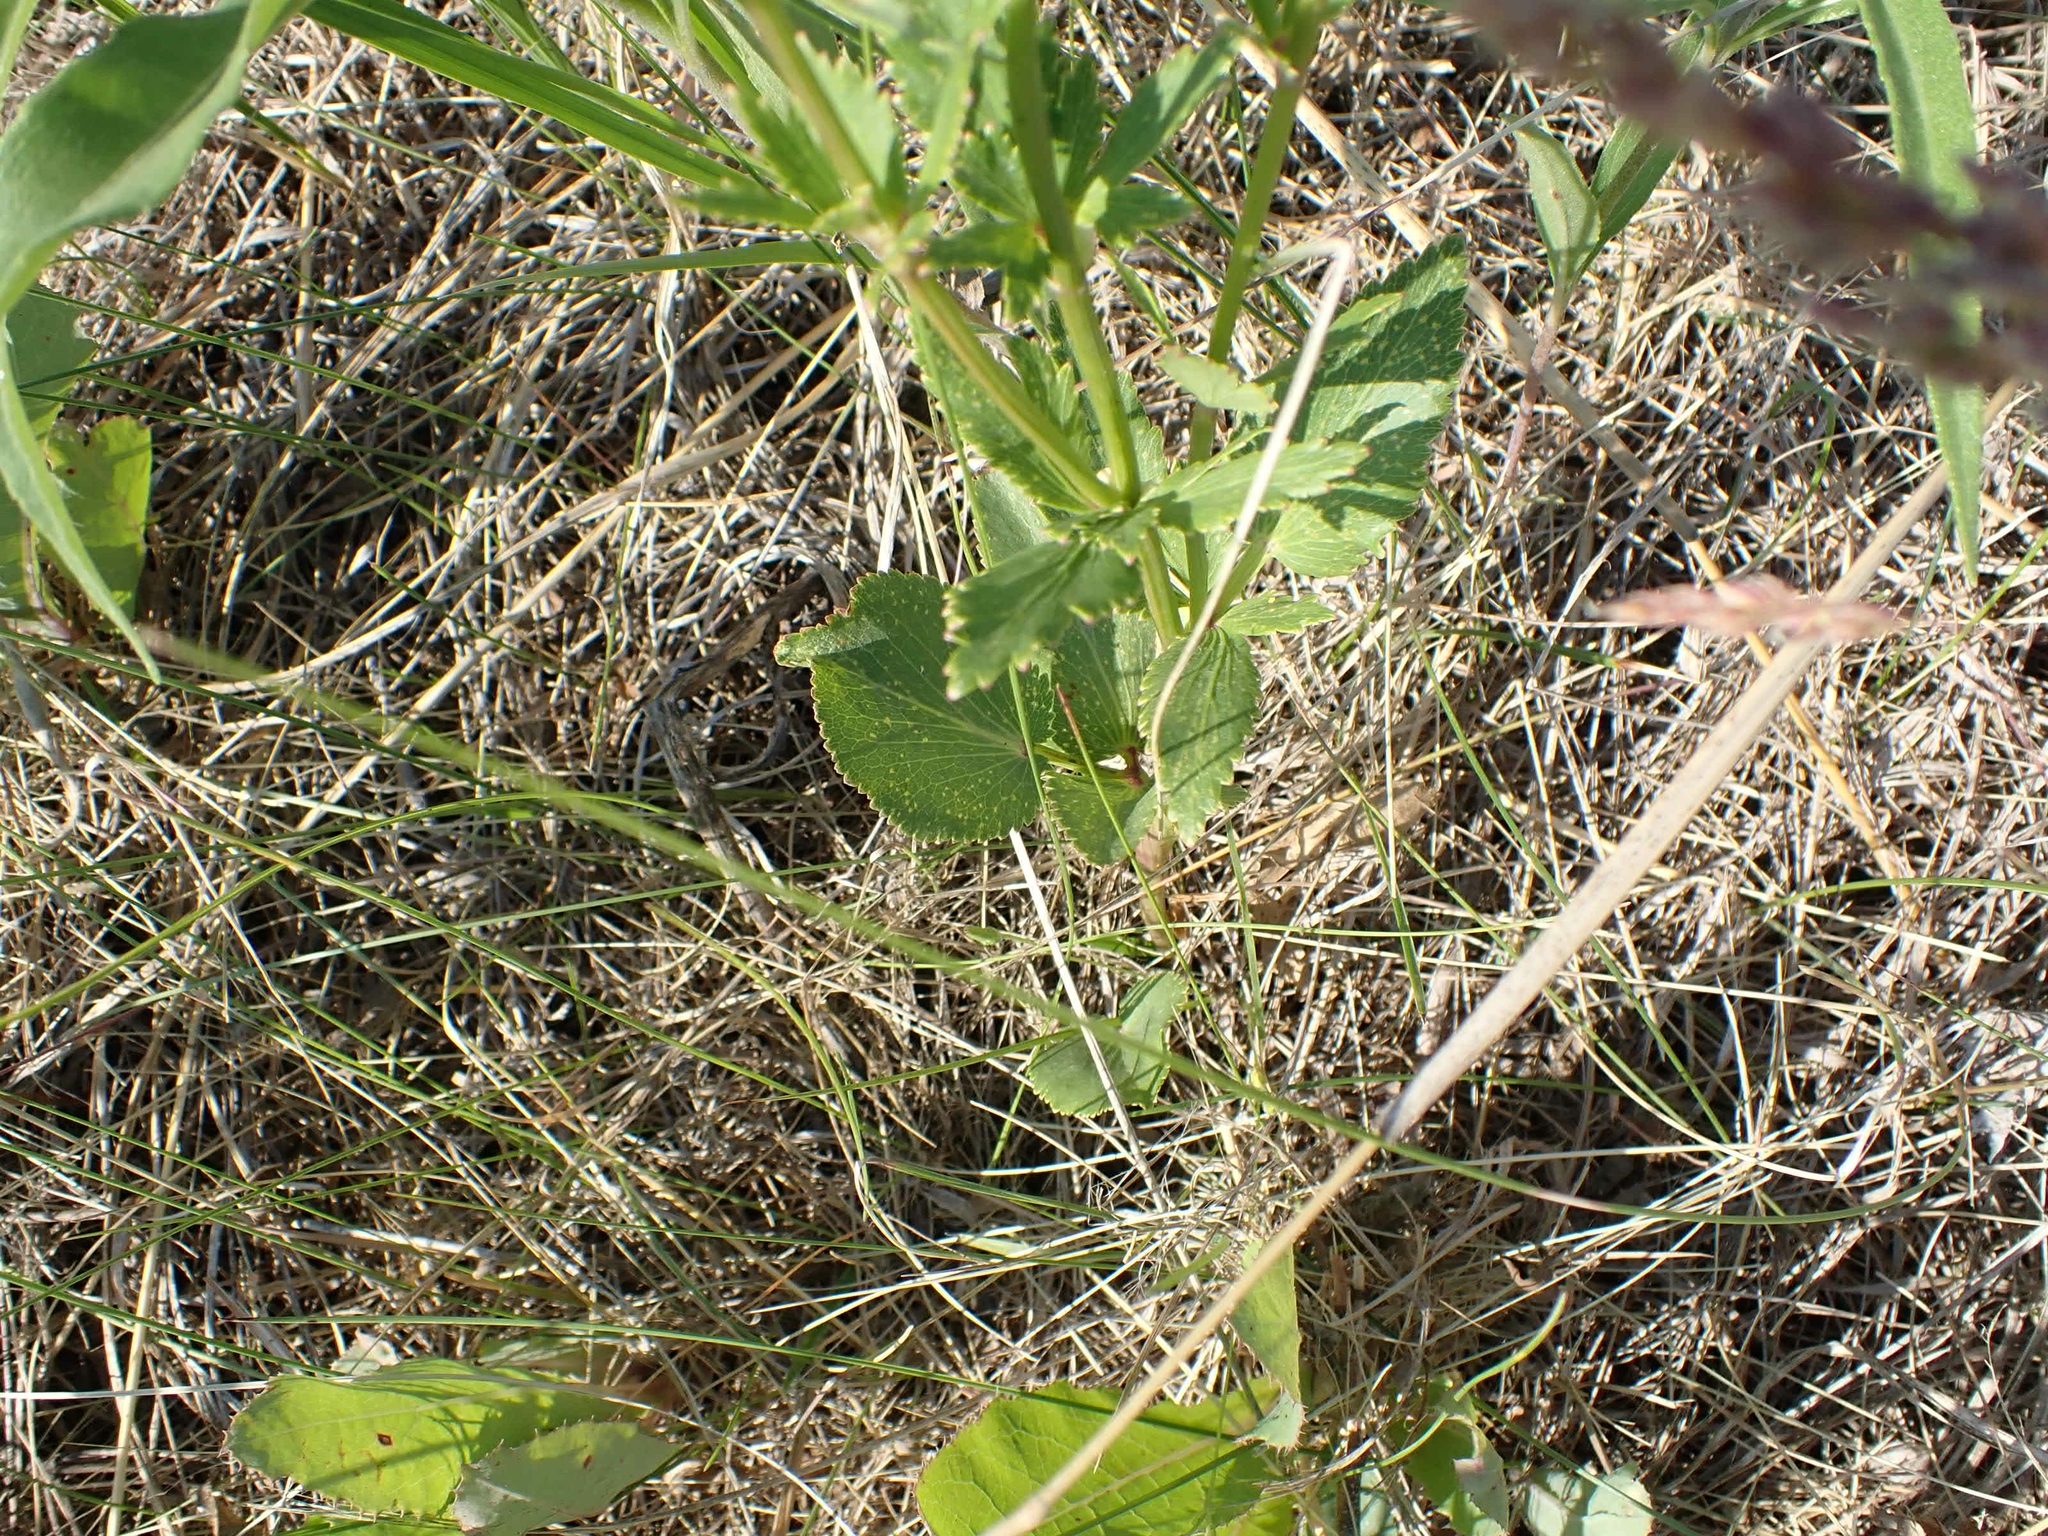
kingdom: Plantae
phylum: Tracheophyta
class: Magnoliopsida
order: Apiales
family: Apiaceae
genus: Zizia
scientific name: Zizia aptera
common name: Heart-leaved alexanders
